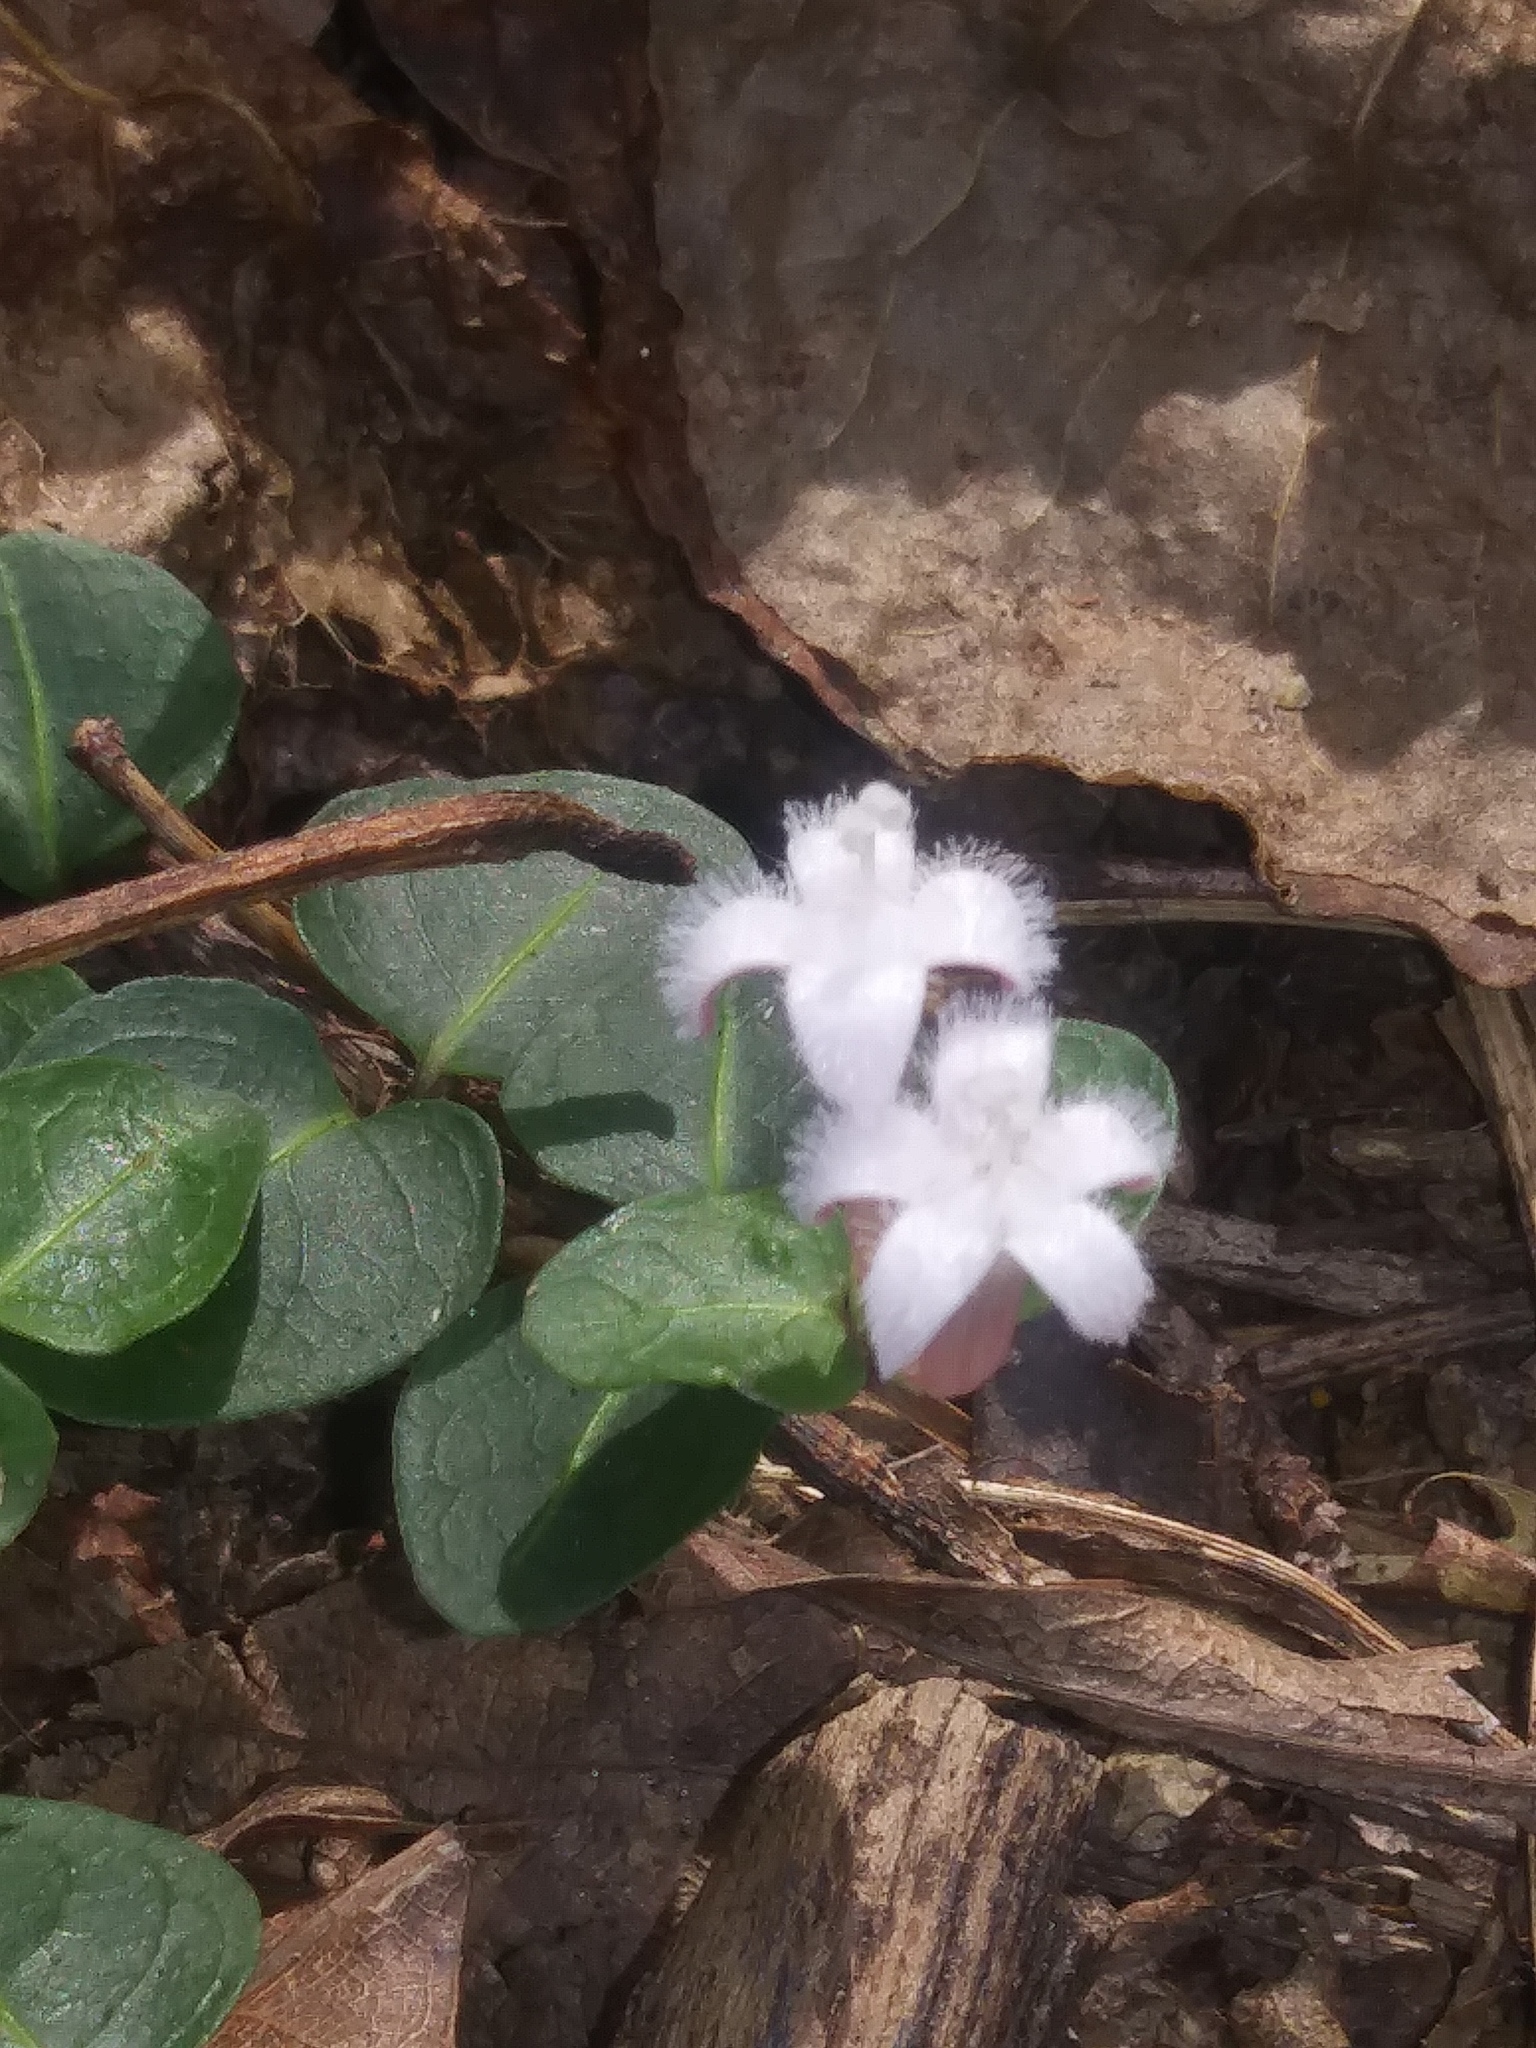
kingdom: Plantae
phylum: Tracheophyta
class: Magnoliopsida
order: Gentianales
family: Rubiaceae
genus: Mitchella
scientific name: Mitchella repens
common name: Partridge-berry
